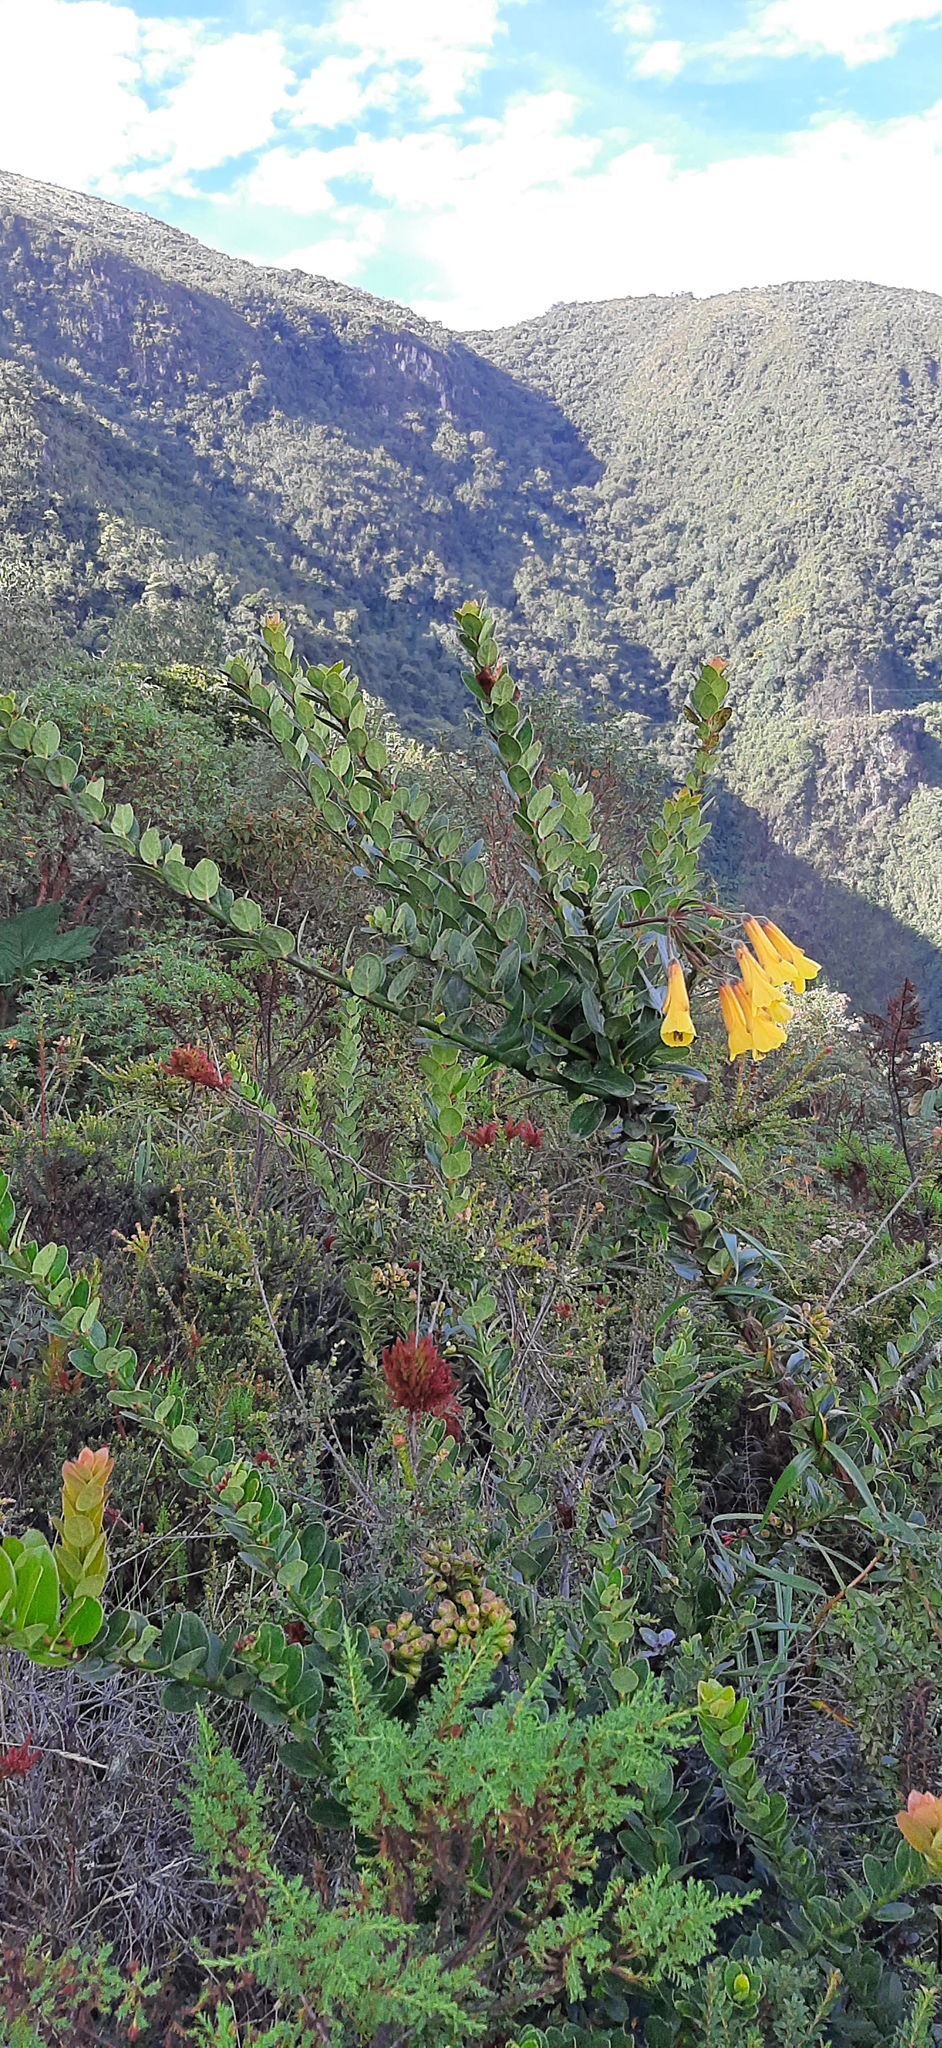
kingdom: Plantae
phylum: Tracheophyta
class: Liliopsida
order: Liliales
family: Alstroemeriaceae
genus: Bomarea
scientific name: Bomarea lutea
